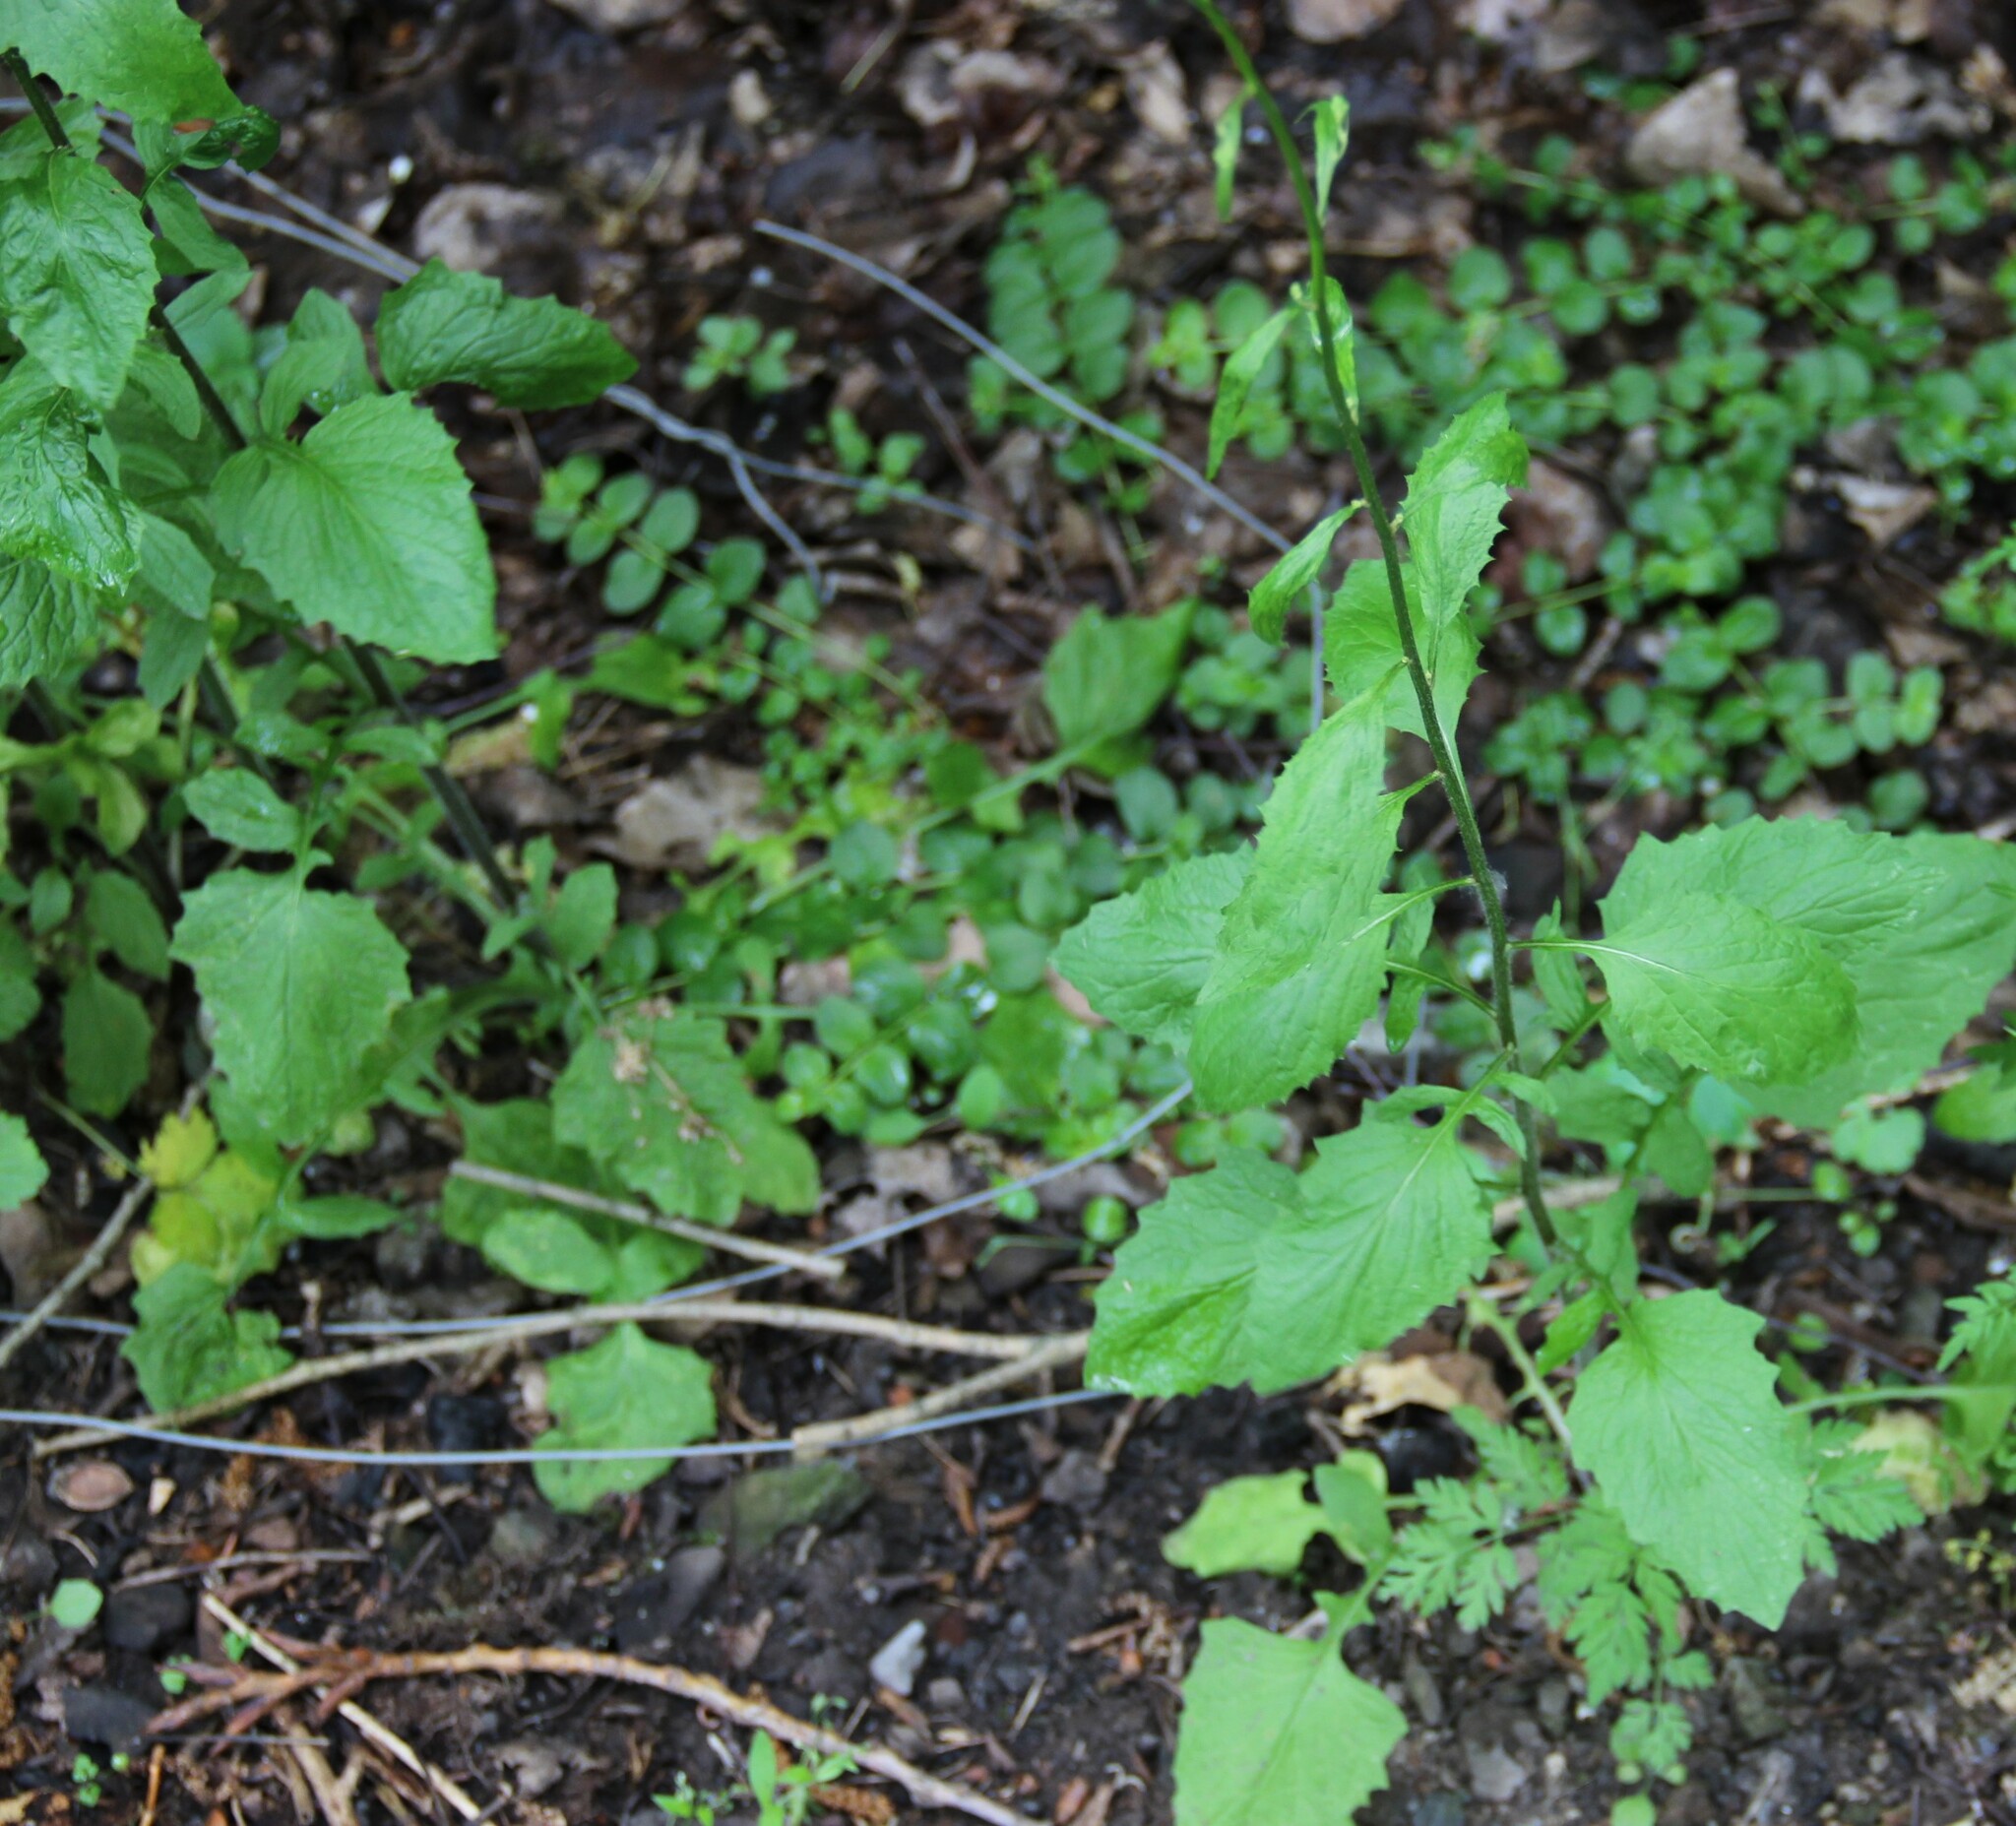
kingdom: Plantae
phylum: Tracheophyta
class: Magnoliopsida
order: Asterales
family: Asteraceae
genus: Lapsana
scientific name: Lapsana communis
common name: Nipplewort
